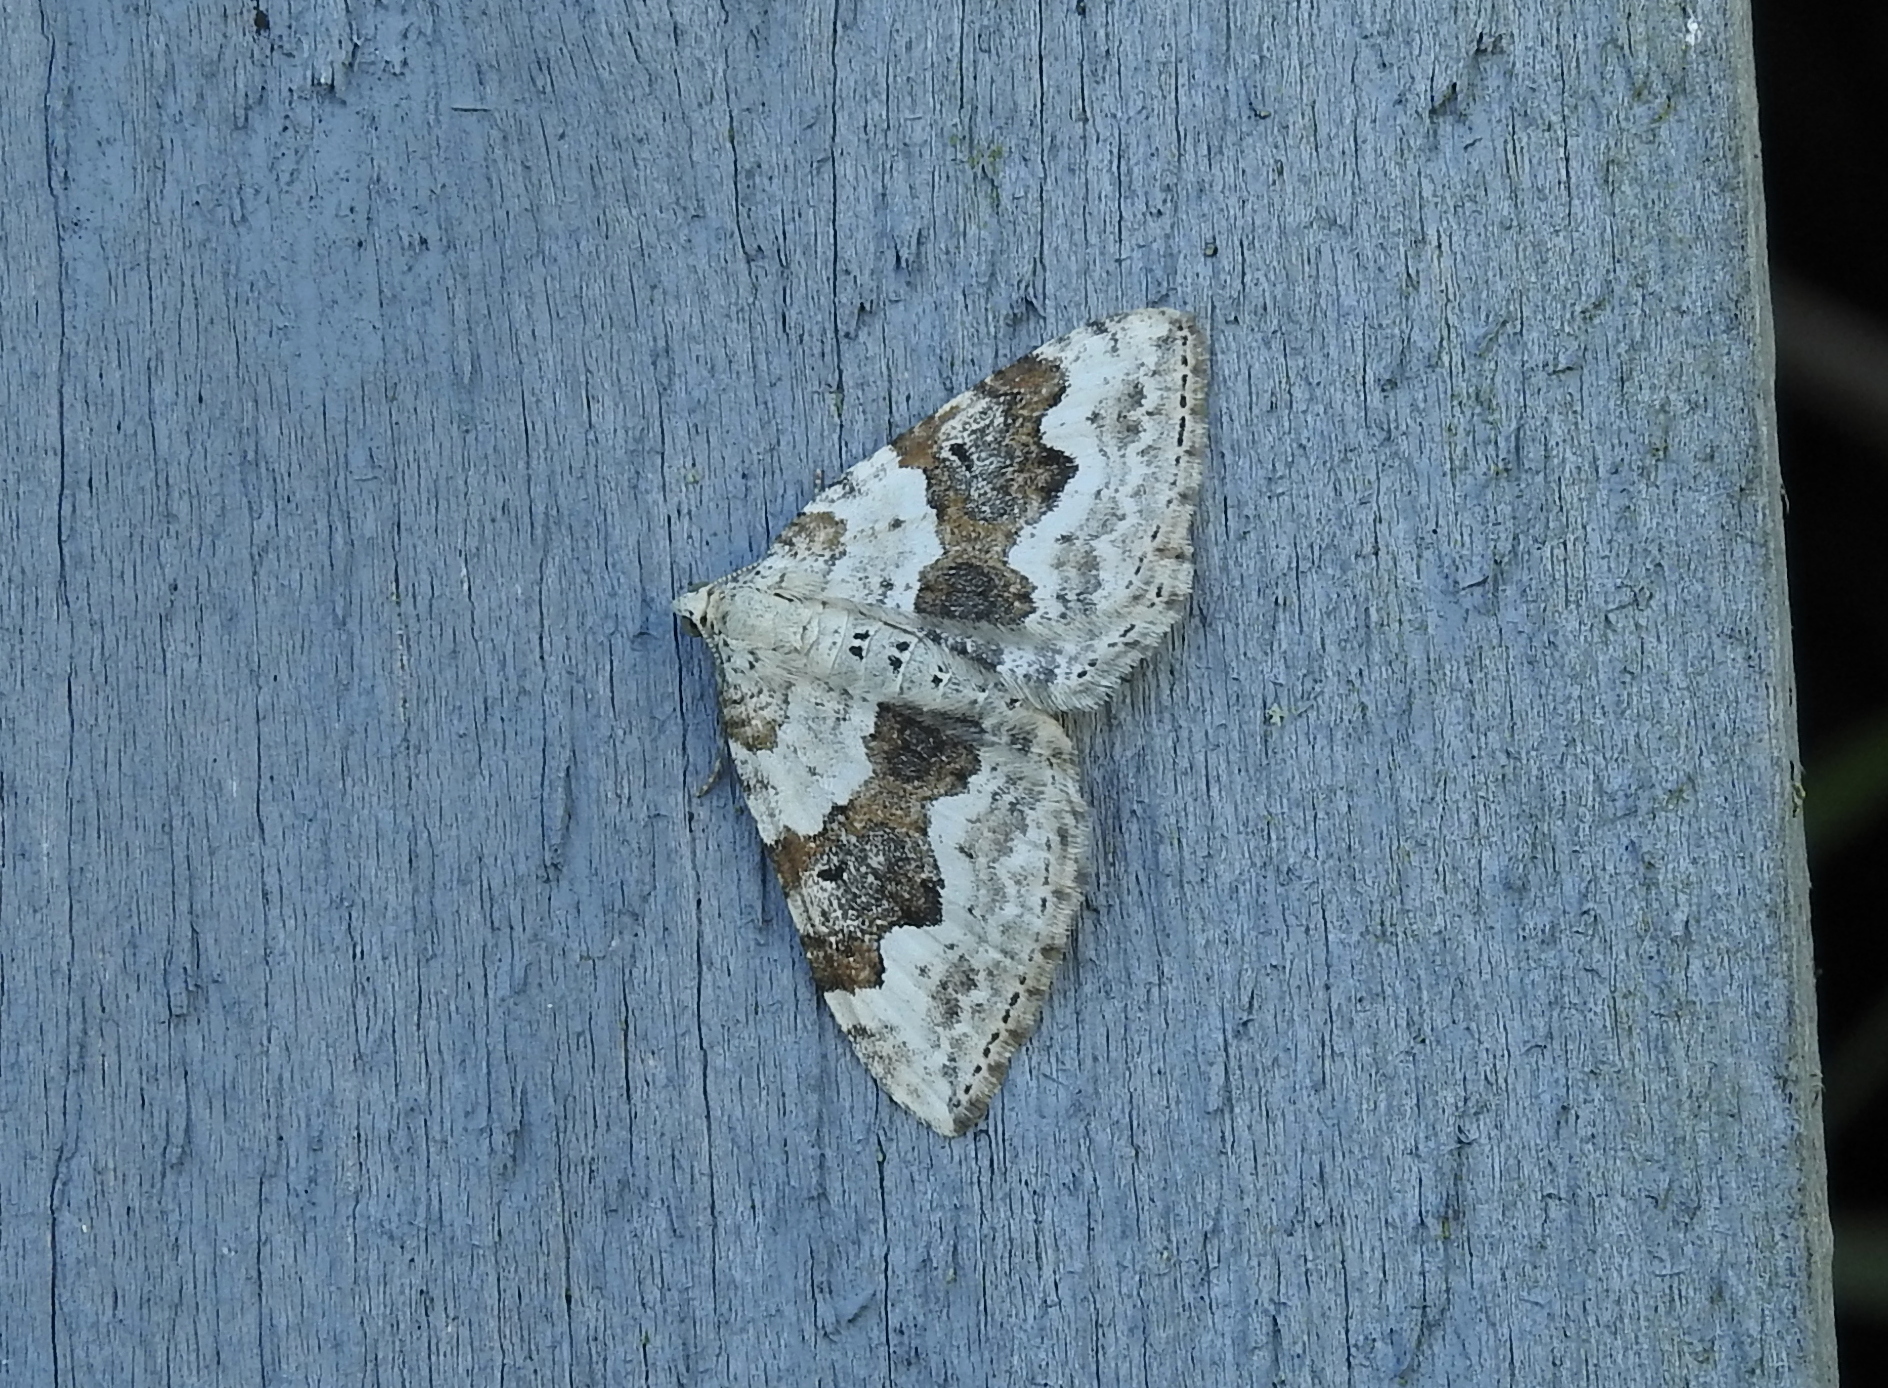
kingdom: Animalia
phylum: Arthropoda
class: Insecta
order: Lepidoptera
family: Geometridae
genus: Xanthorhoe
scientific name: Xanthorhoe montanata
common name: Silver-ground carpet
